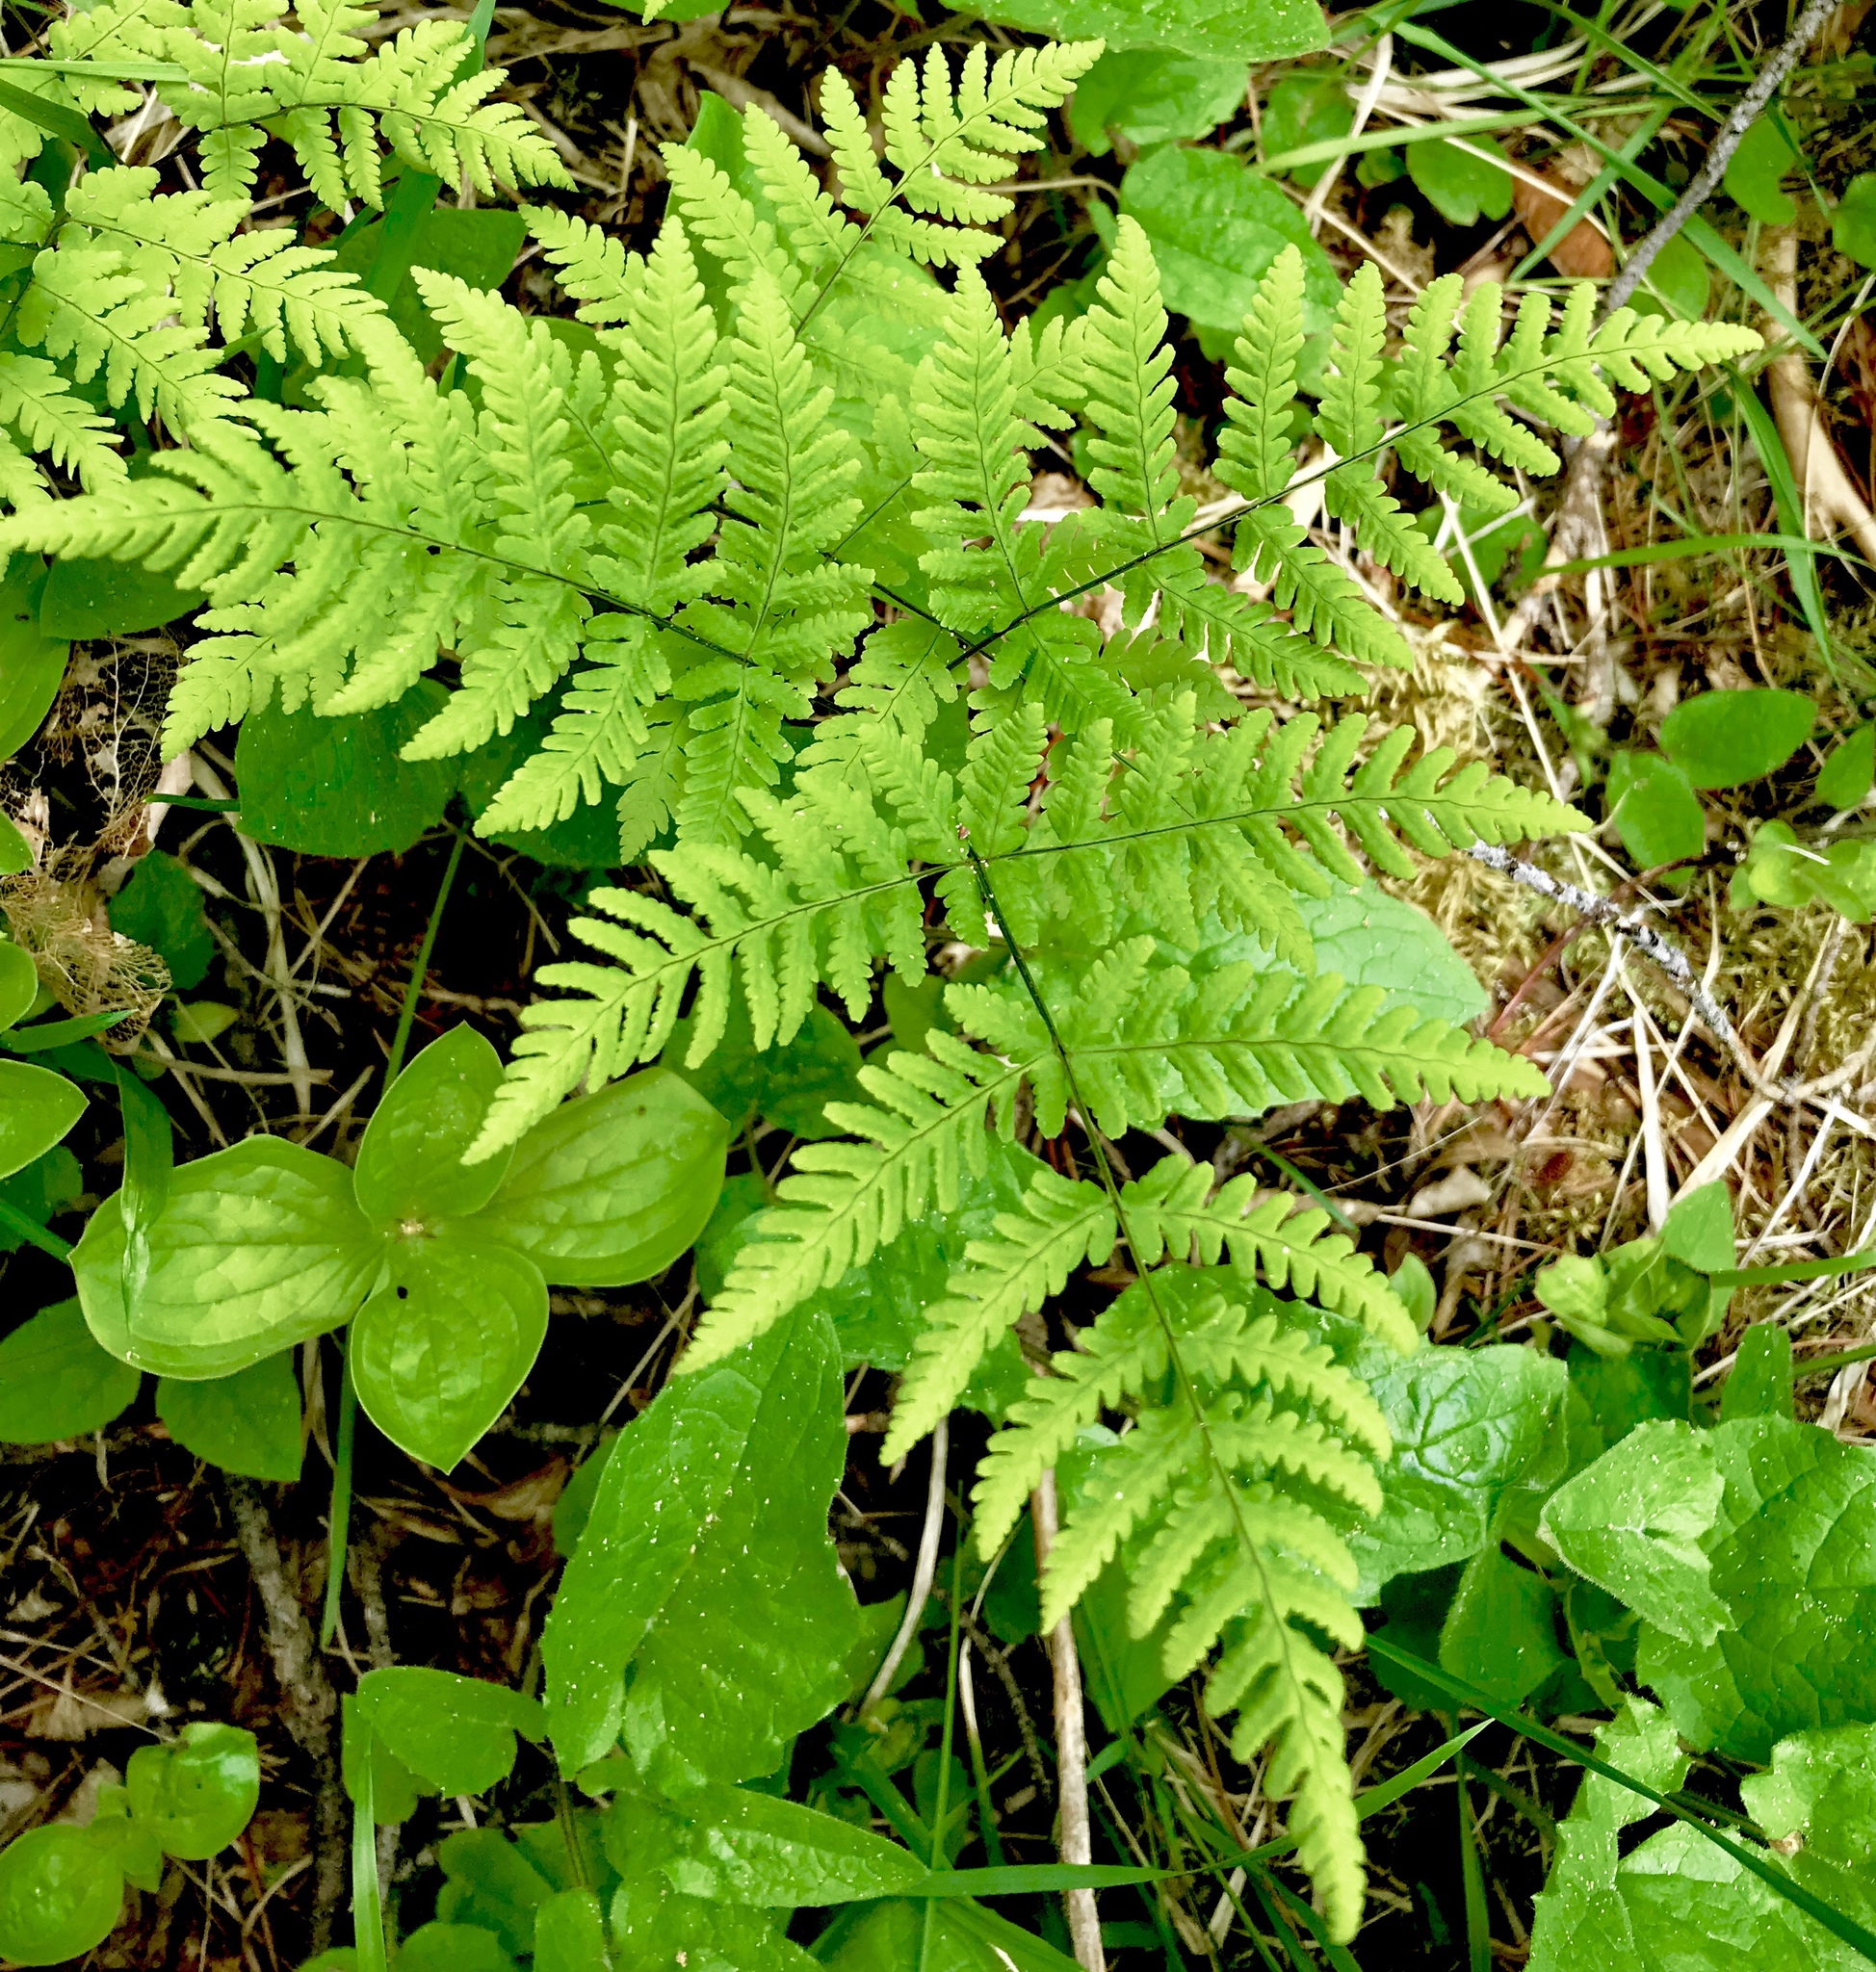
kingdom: Plantae
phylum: Tracheophyta
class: Polypodiopsida
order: Polypodiales
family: Cystopteridaceae
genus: Gymnocarpium
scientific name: Gymnocarpium dryopteris
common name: Oak fern
